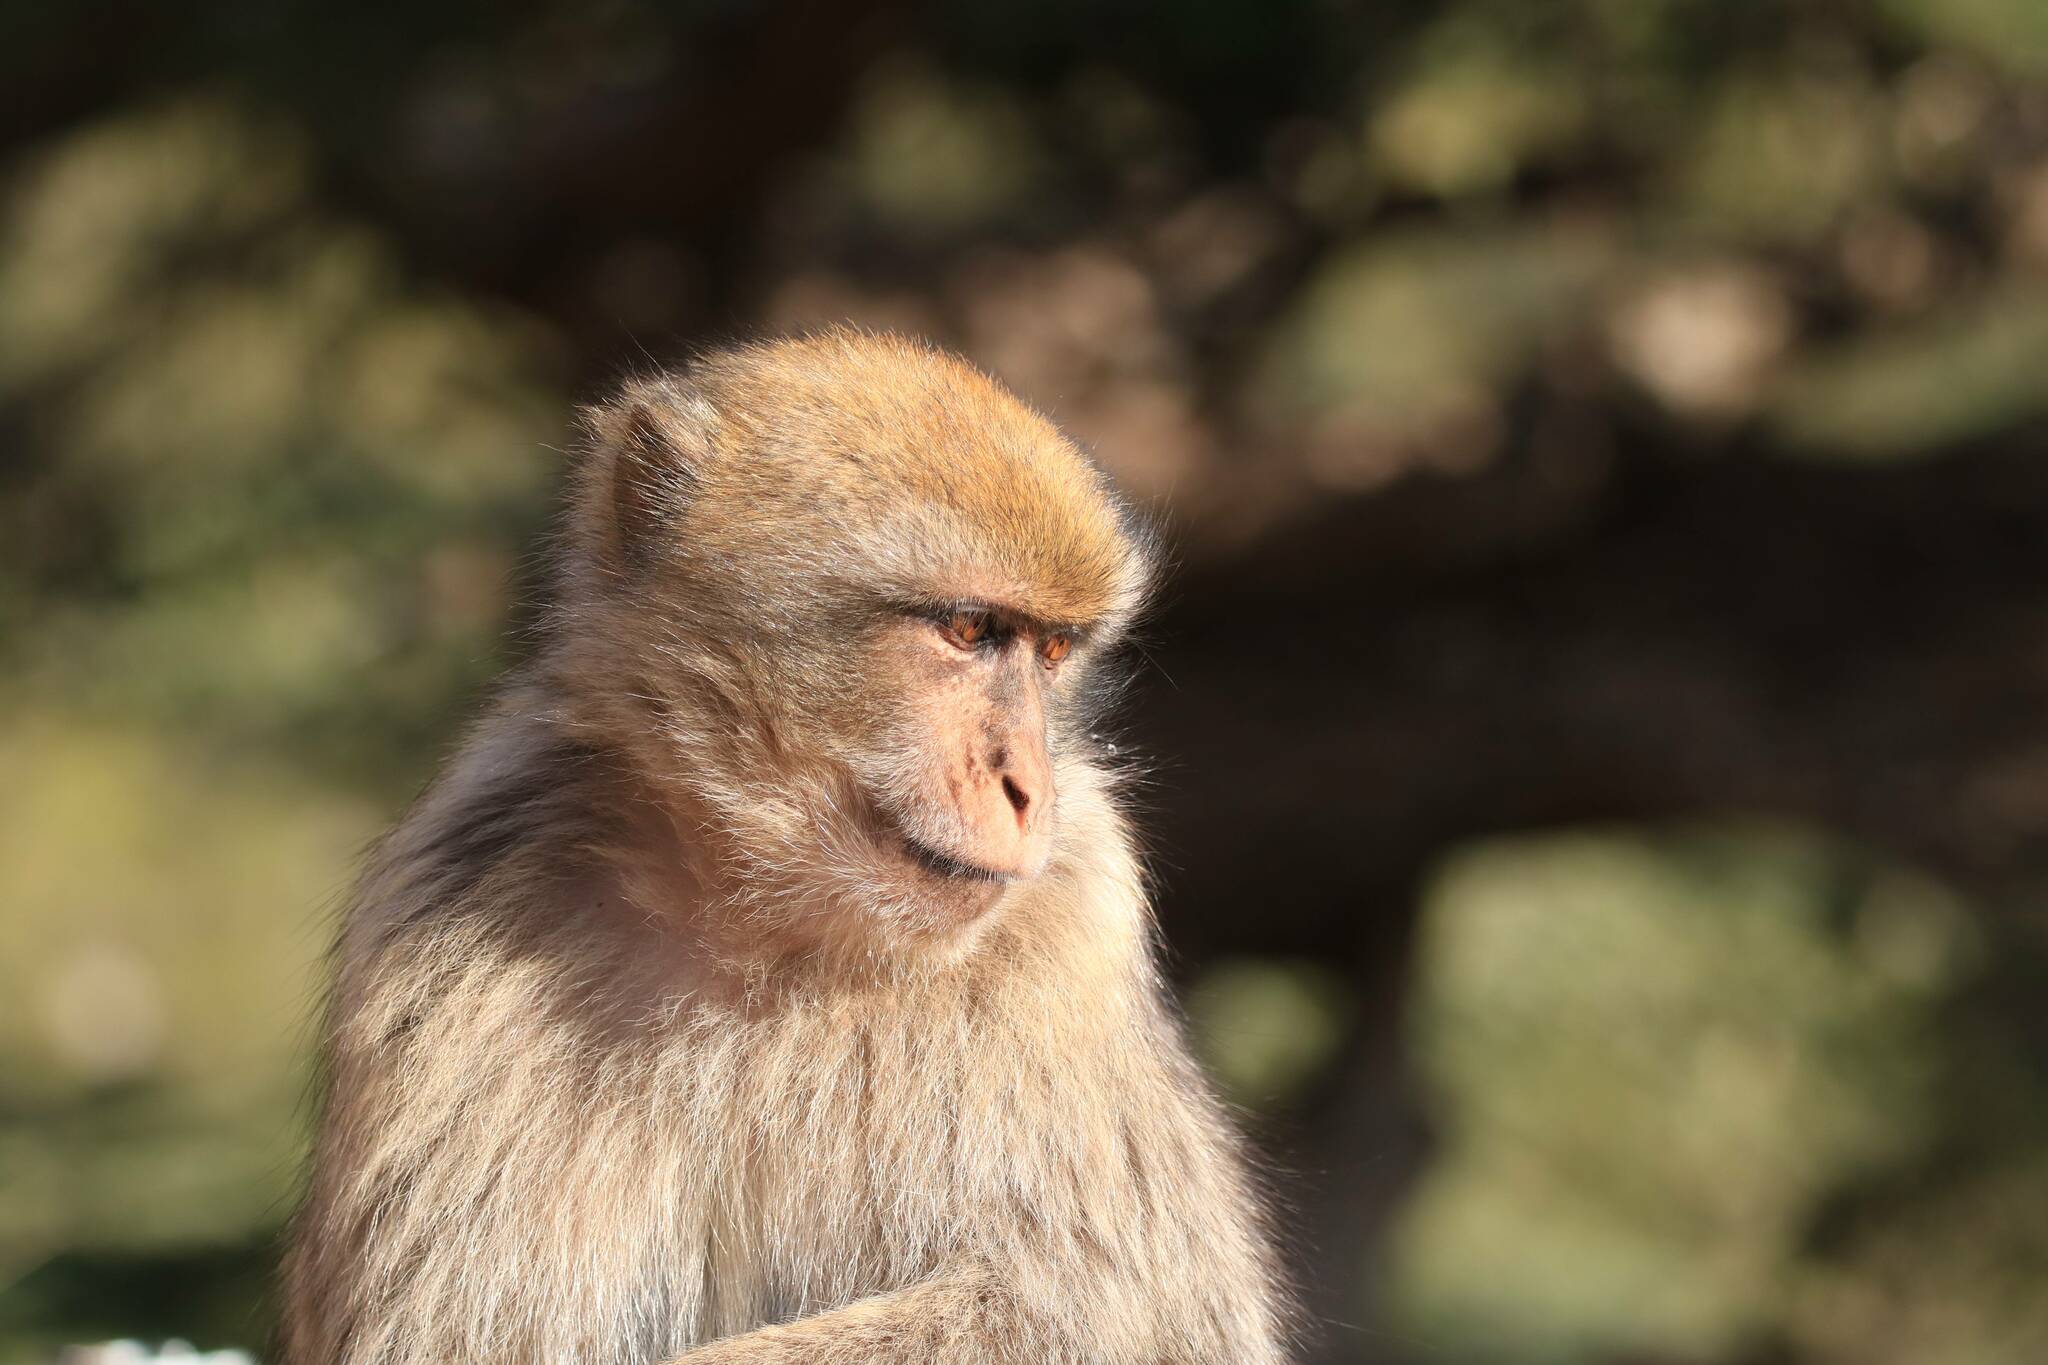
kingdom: Animalia
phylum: Chordata
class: Mammalia
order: Primates
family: Cercopithecidae
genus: Macaca
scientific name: Macaca sylvanus
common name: Barbary macaque
